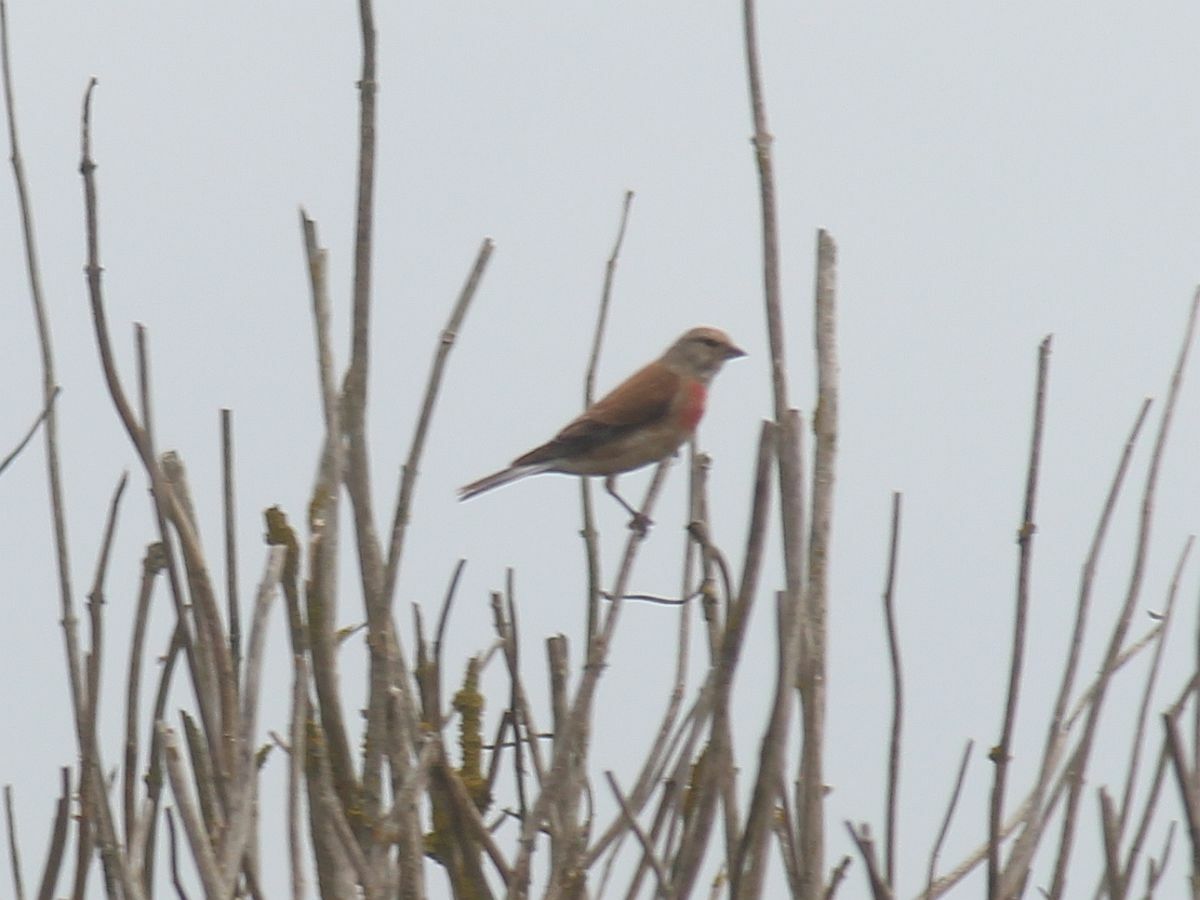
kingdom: Animalia
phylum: Chordata
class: Aves
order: Passeriformes
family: Fringillidae
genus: Linaria
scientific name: Linaria cannabina
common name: Common linnet
